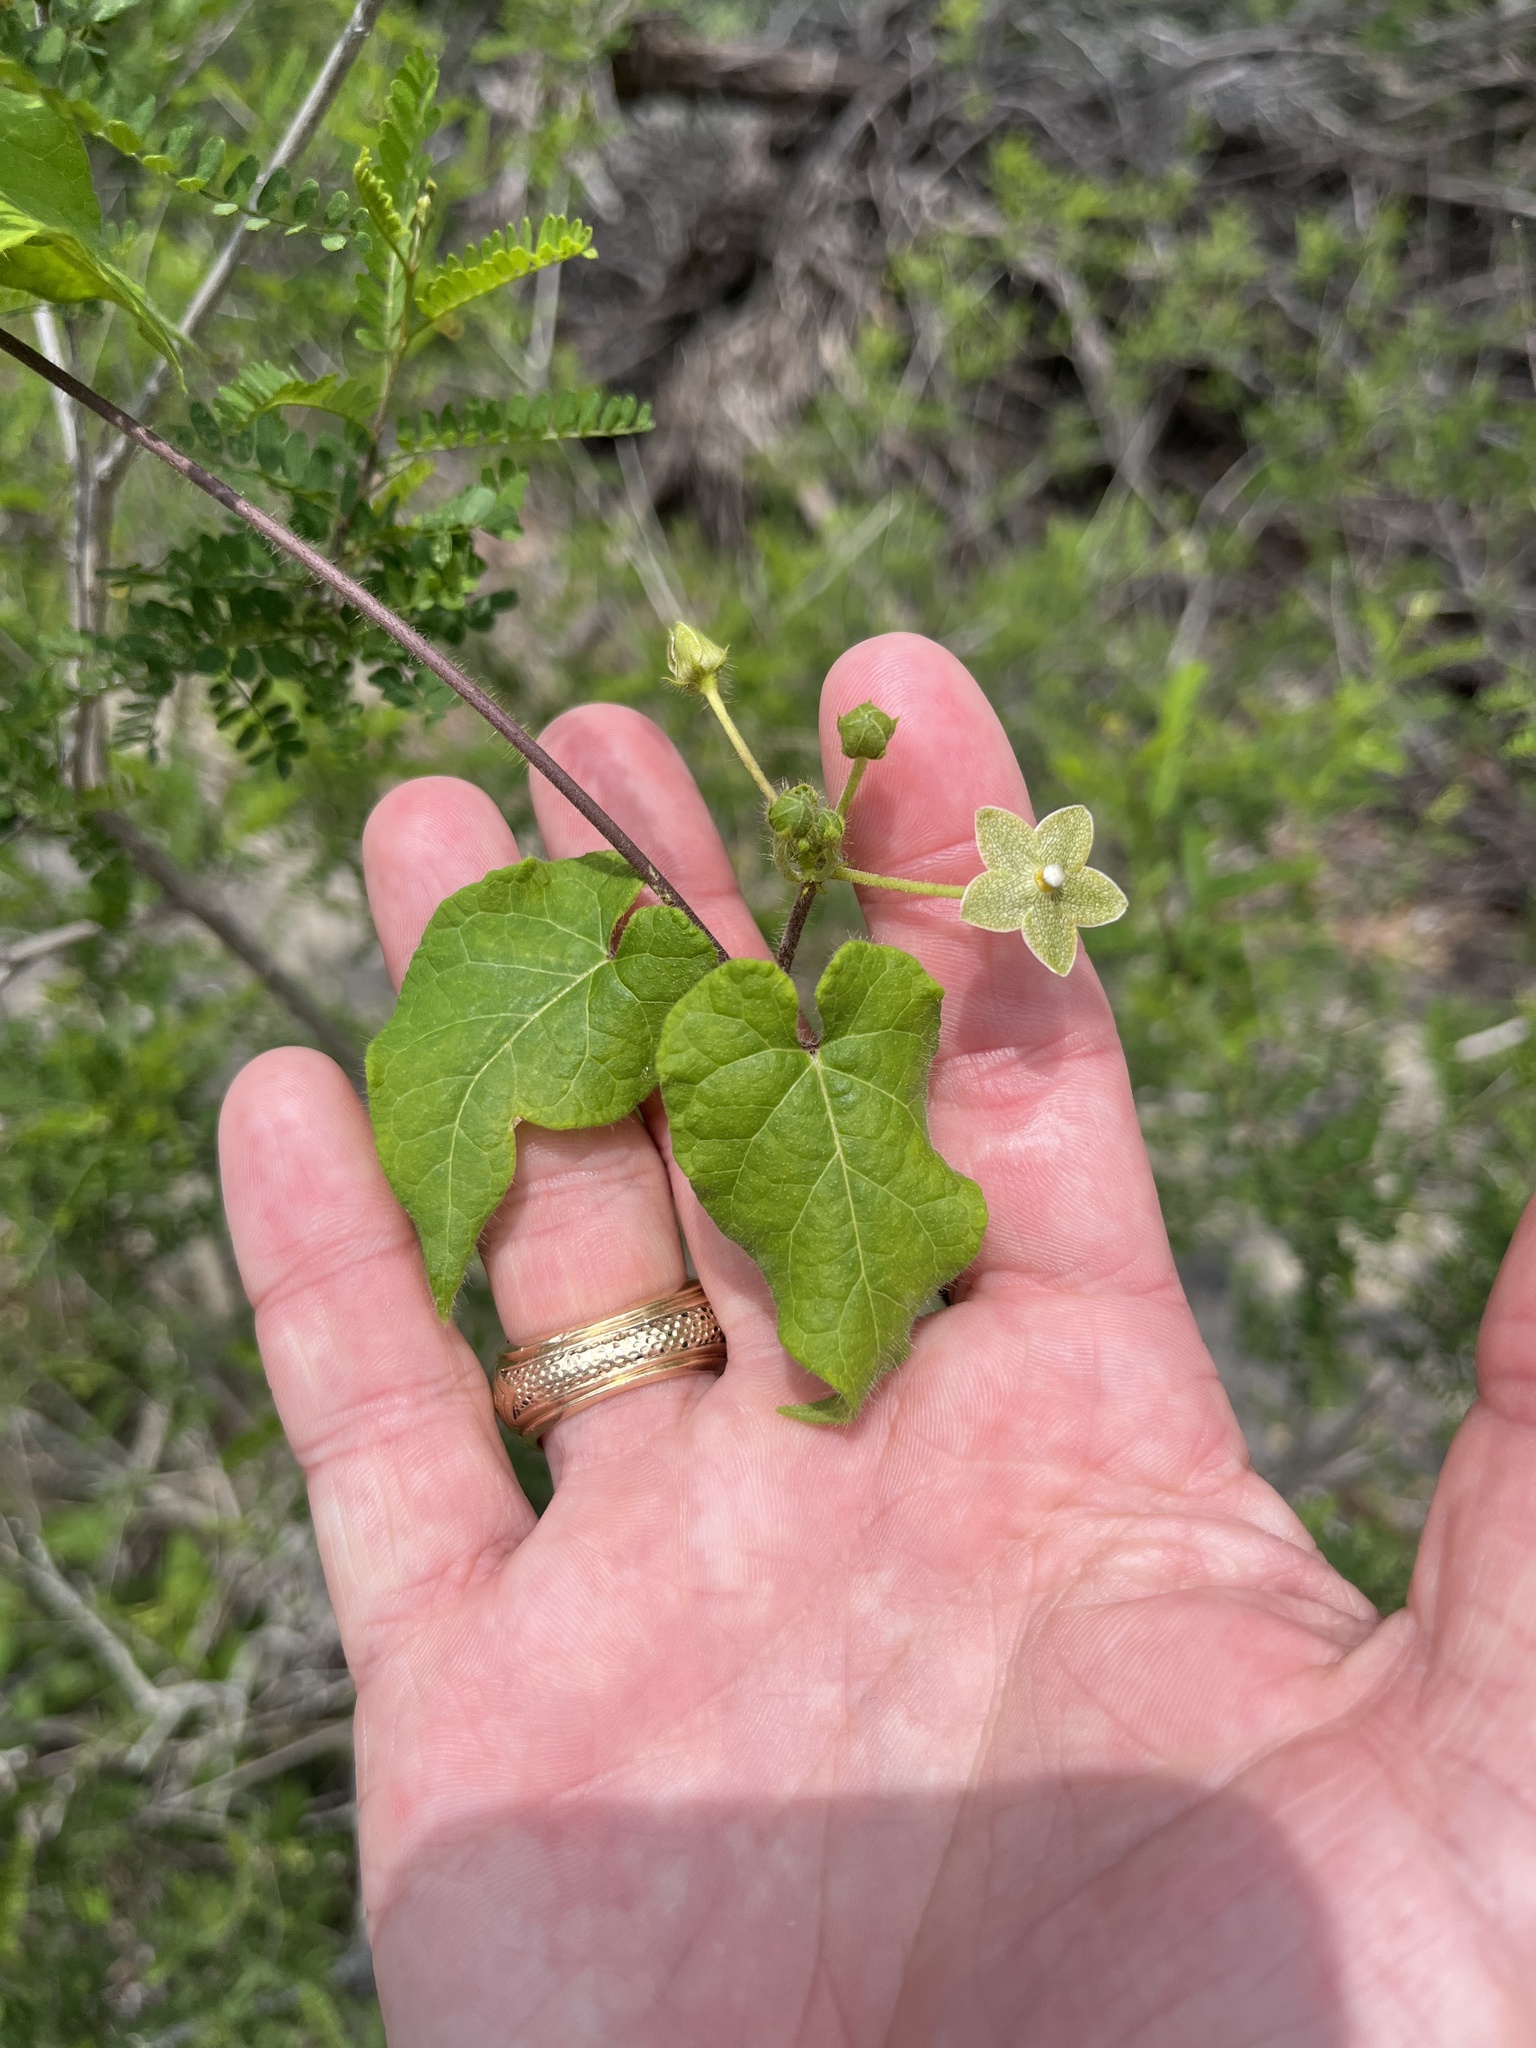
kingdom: Plantae
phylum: Tracheophyta
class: Magnoliopsida
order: Gentianales
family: Apocynaceae
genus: Dictyanthus
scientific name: Dictyanthus reticulatus
